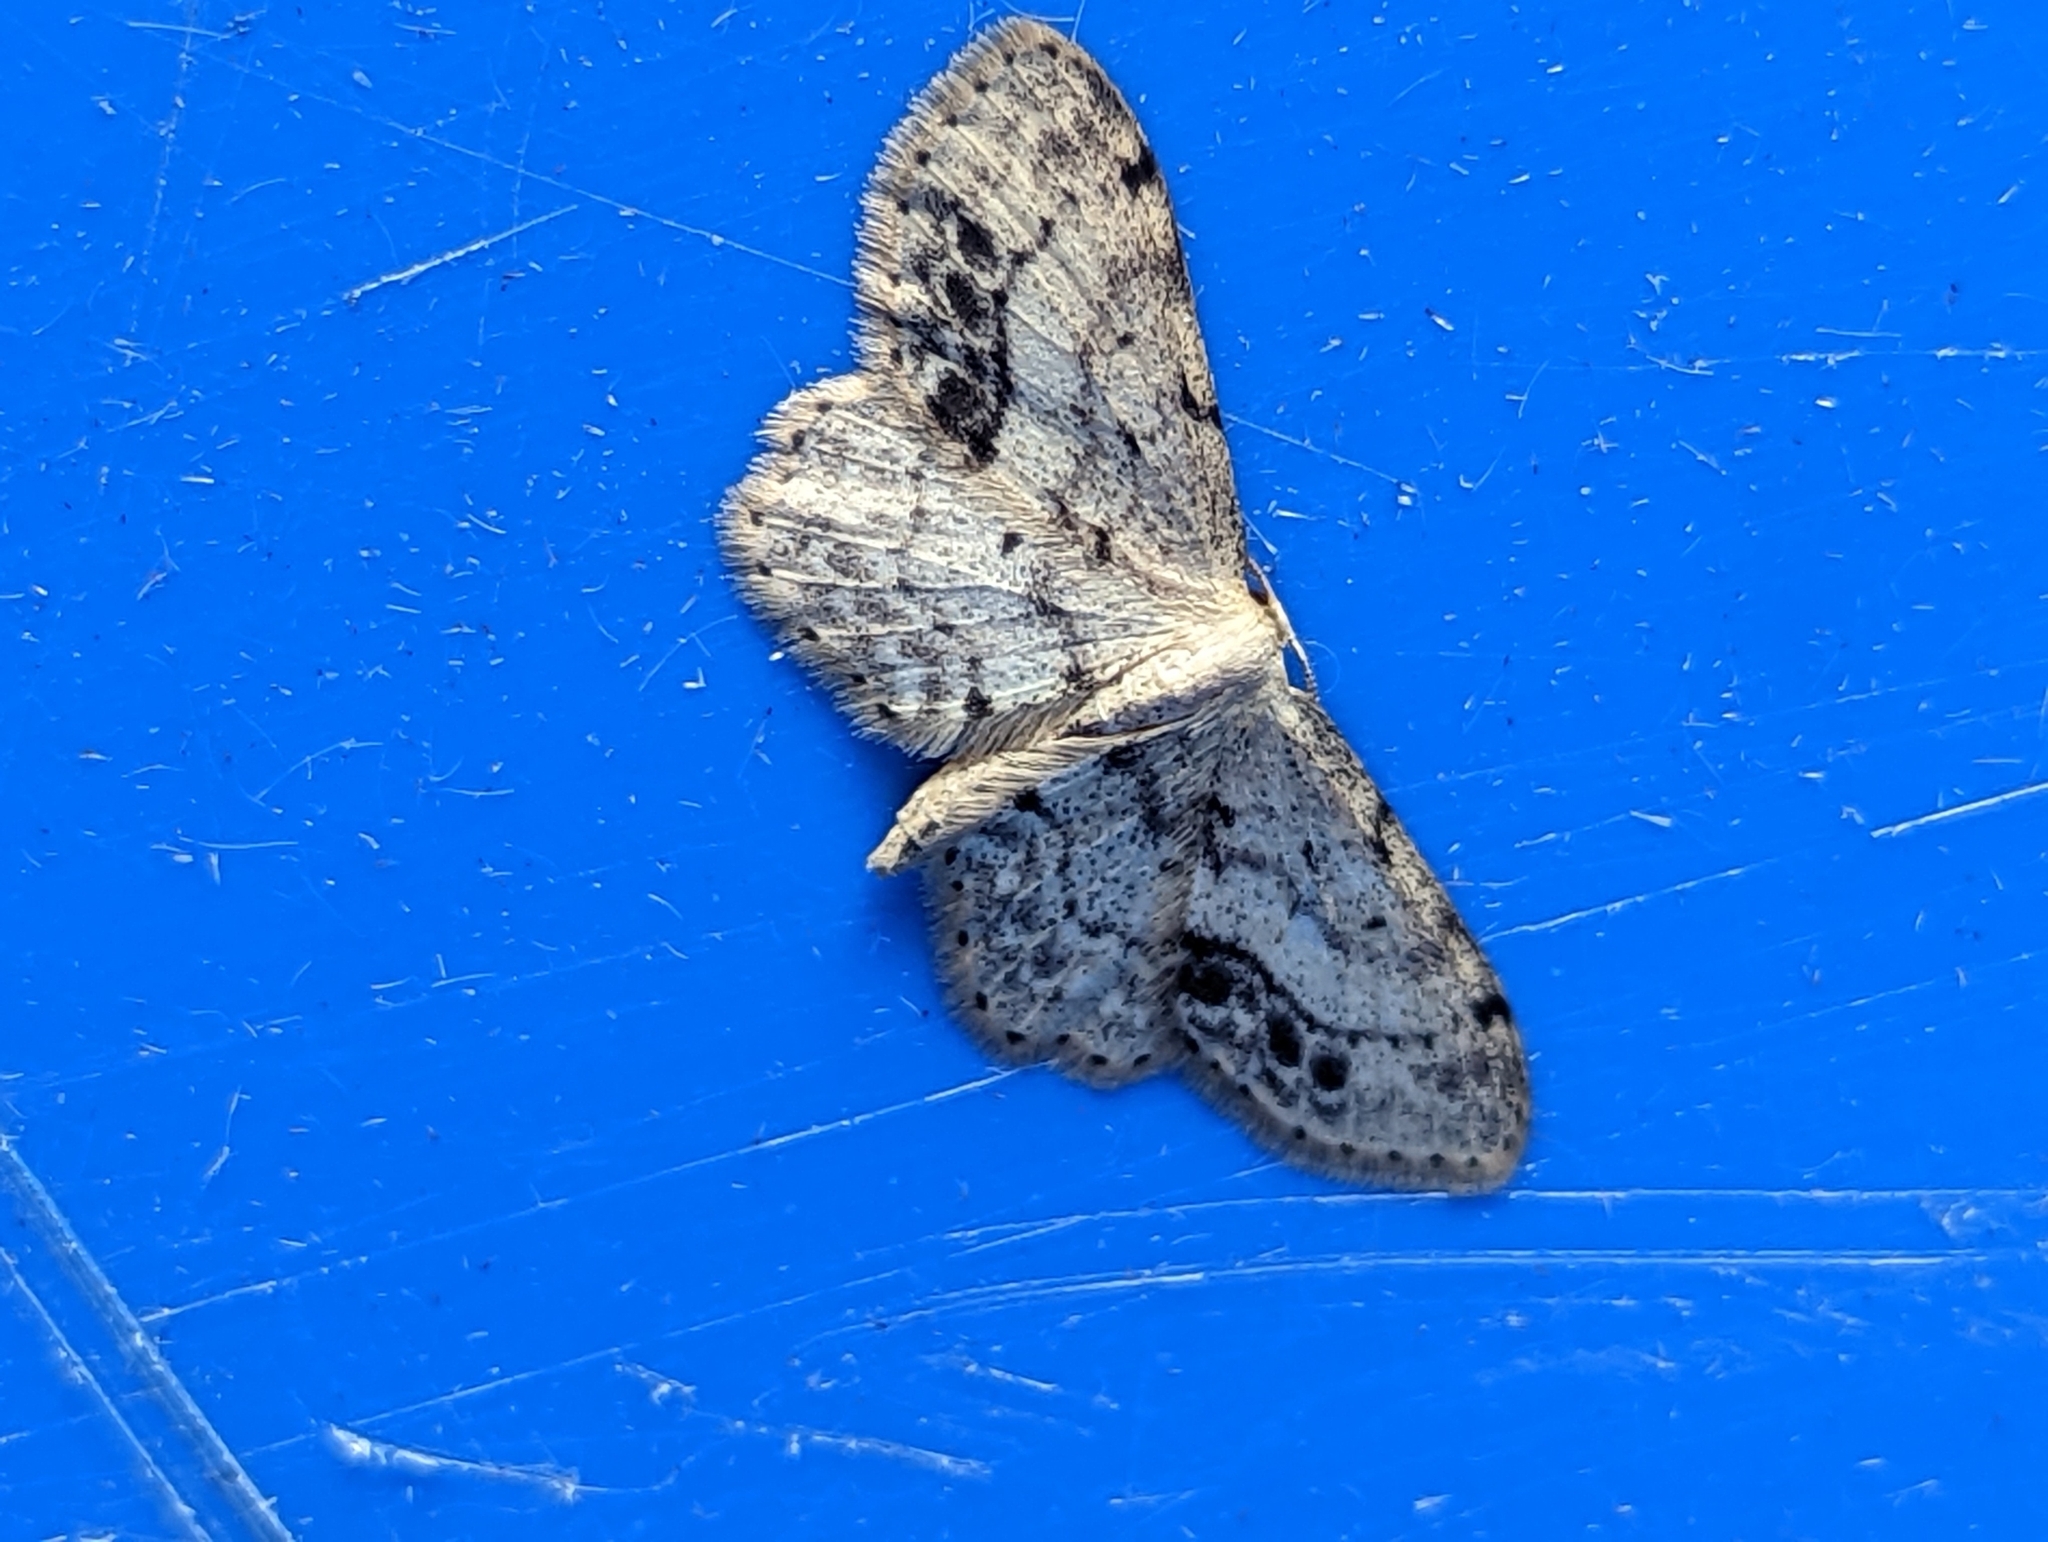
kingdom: Animalia
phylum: Arthropoda
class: Insecta
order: Lepidoptera
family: Geometridae
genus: Idaea
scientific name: Idaea dimidiata
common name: Single-dotted wave
